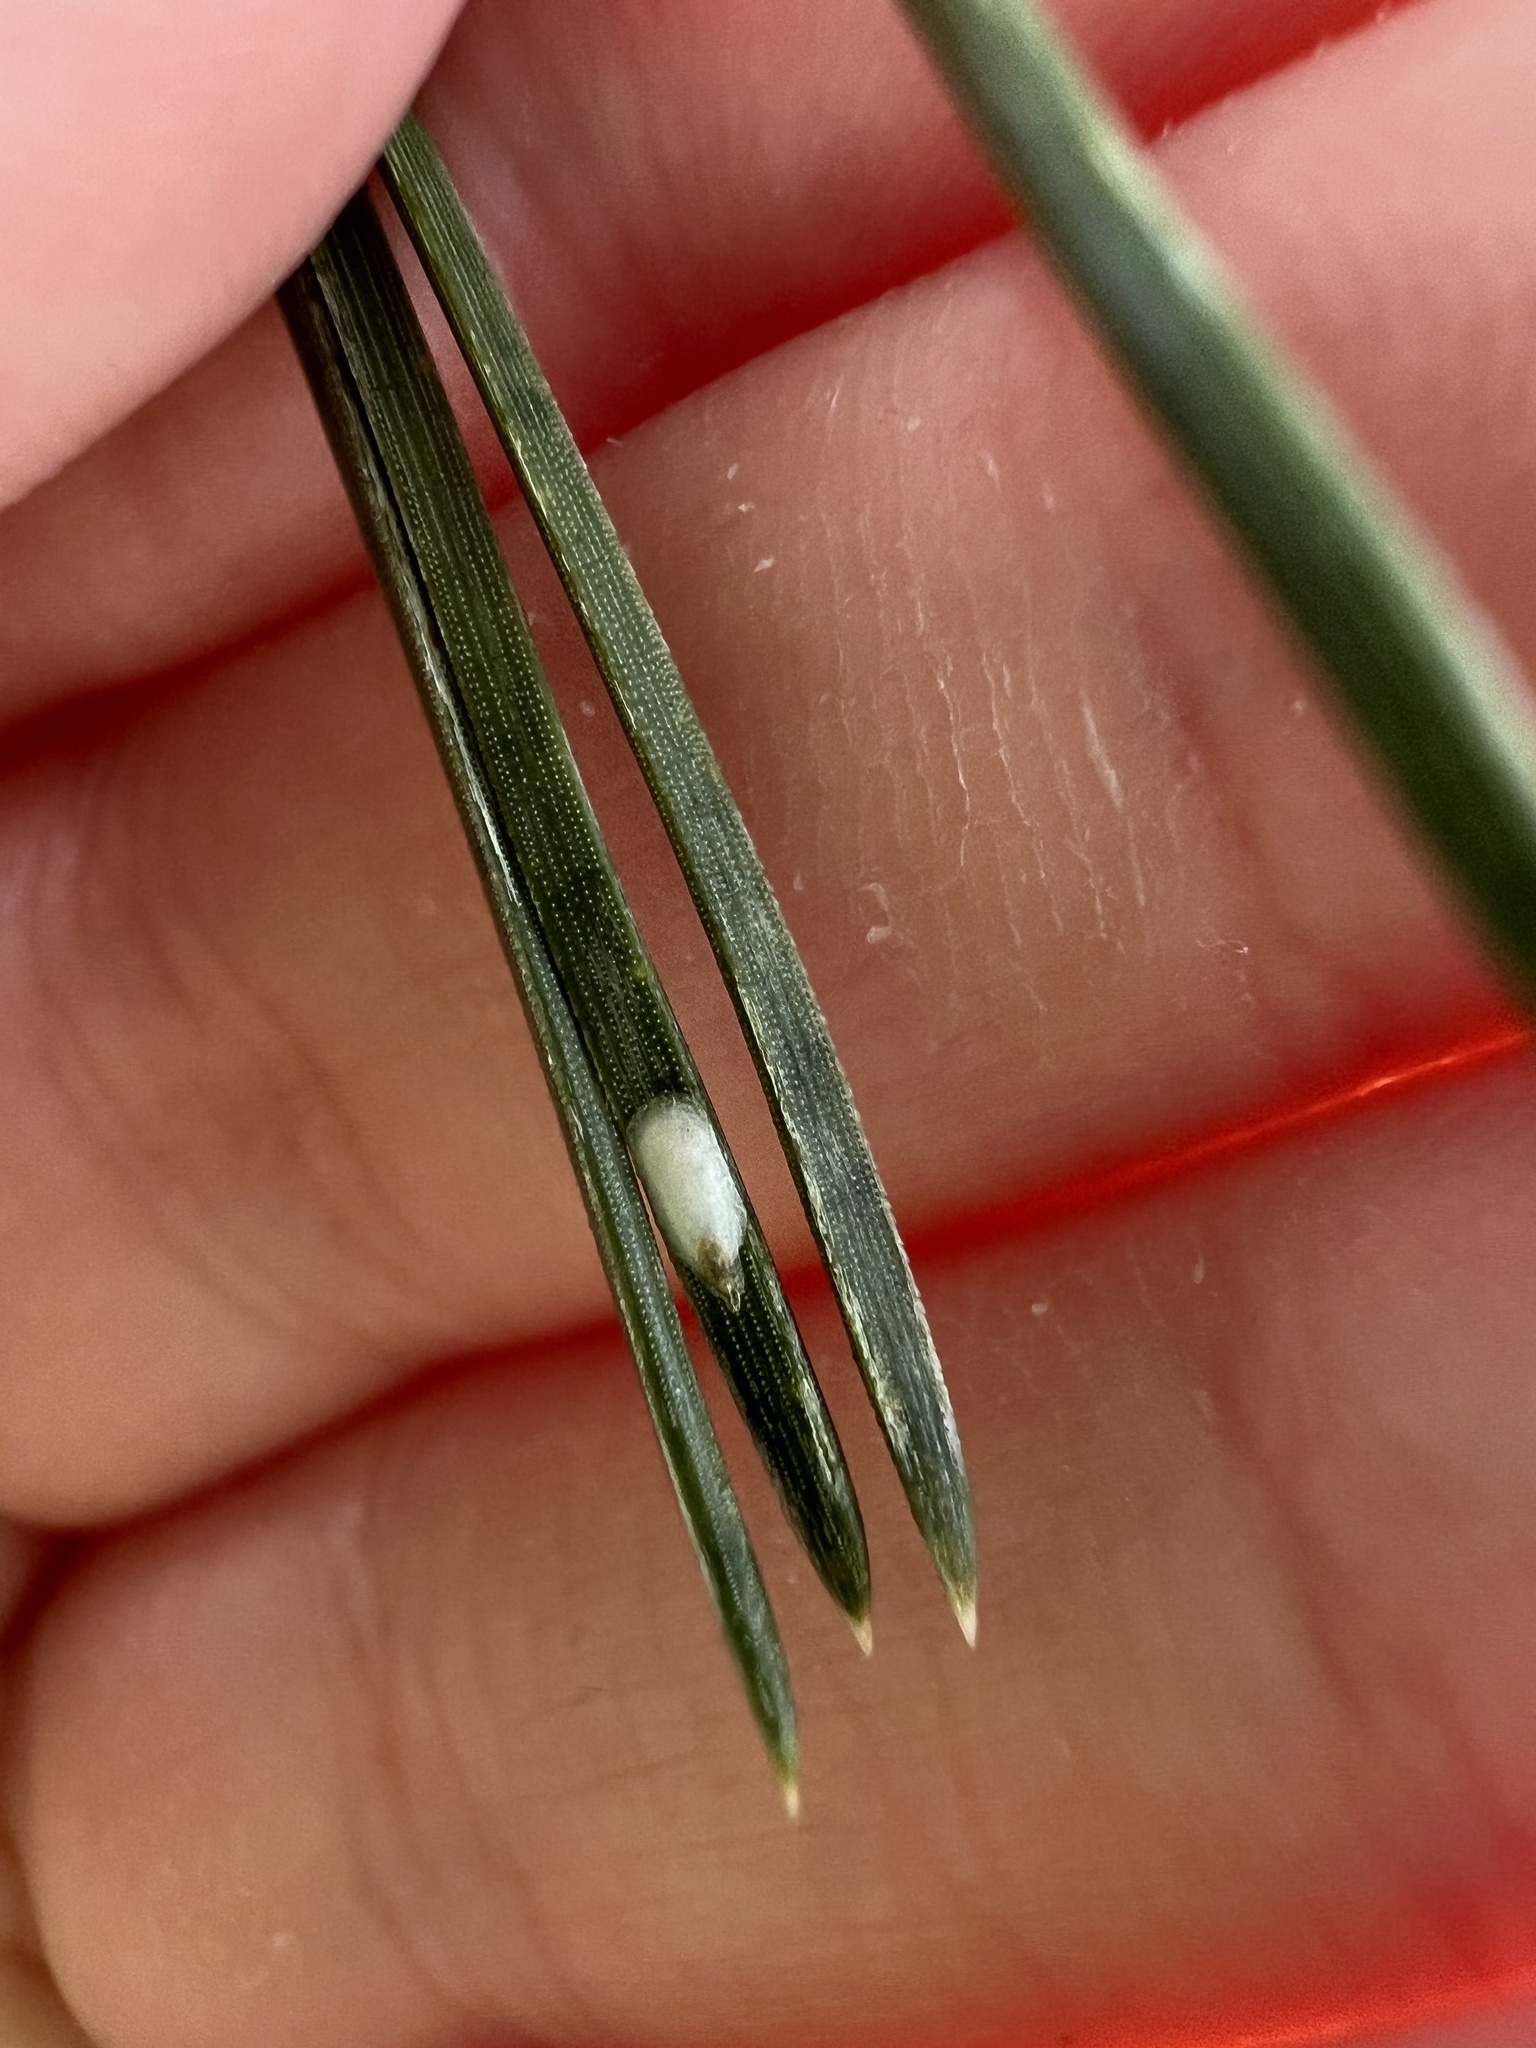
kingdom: Animalia
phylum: Arthropoda
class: Insecta
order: Hemiptera
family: Diaspididae
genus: Chionaspis
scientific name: Chionaspis pinifoliae
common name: Pine leaf scale
